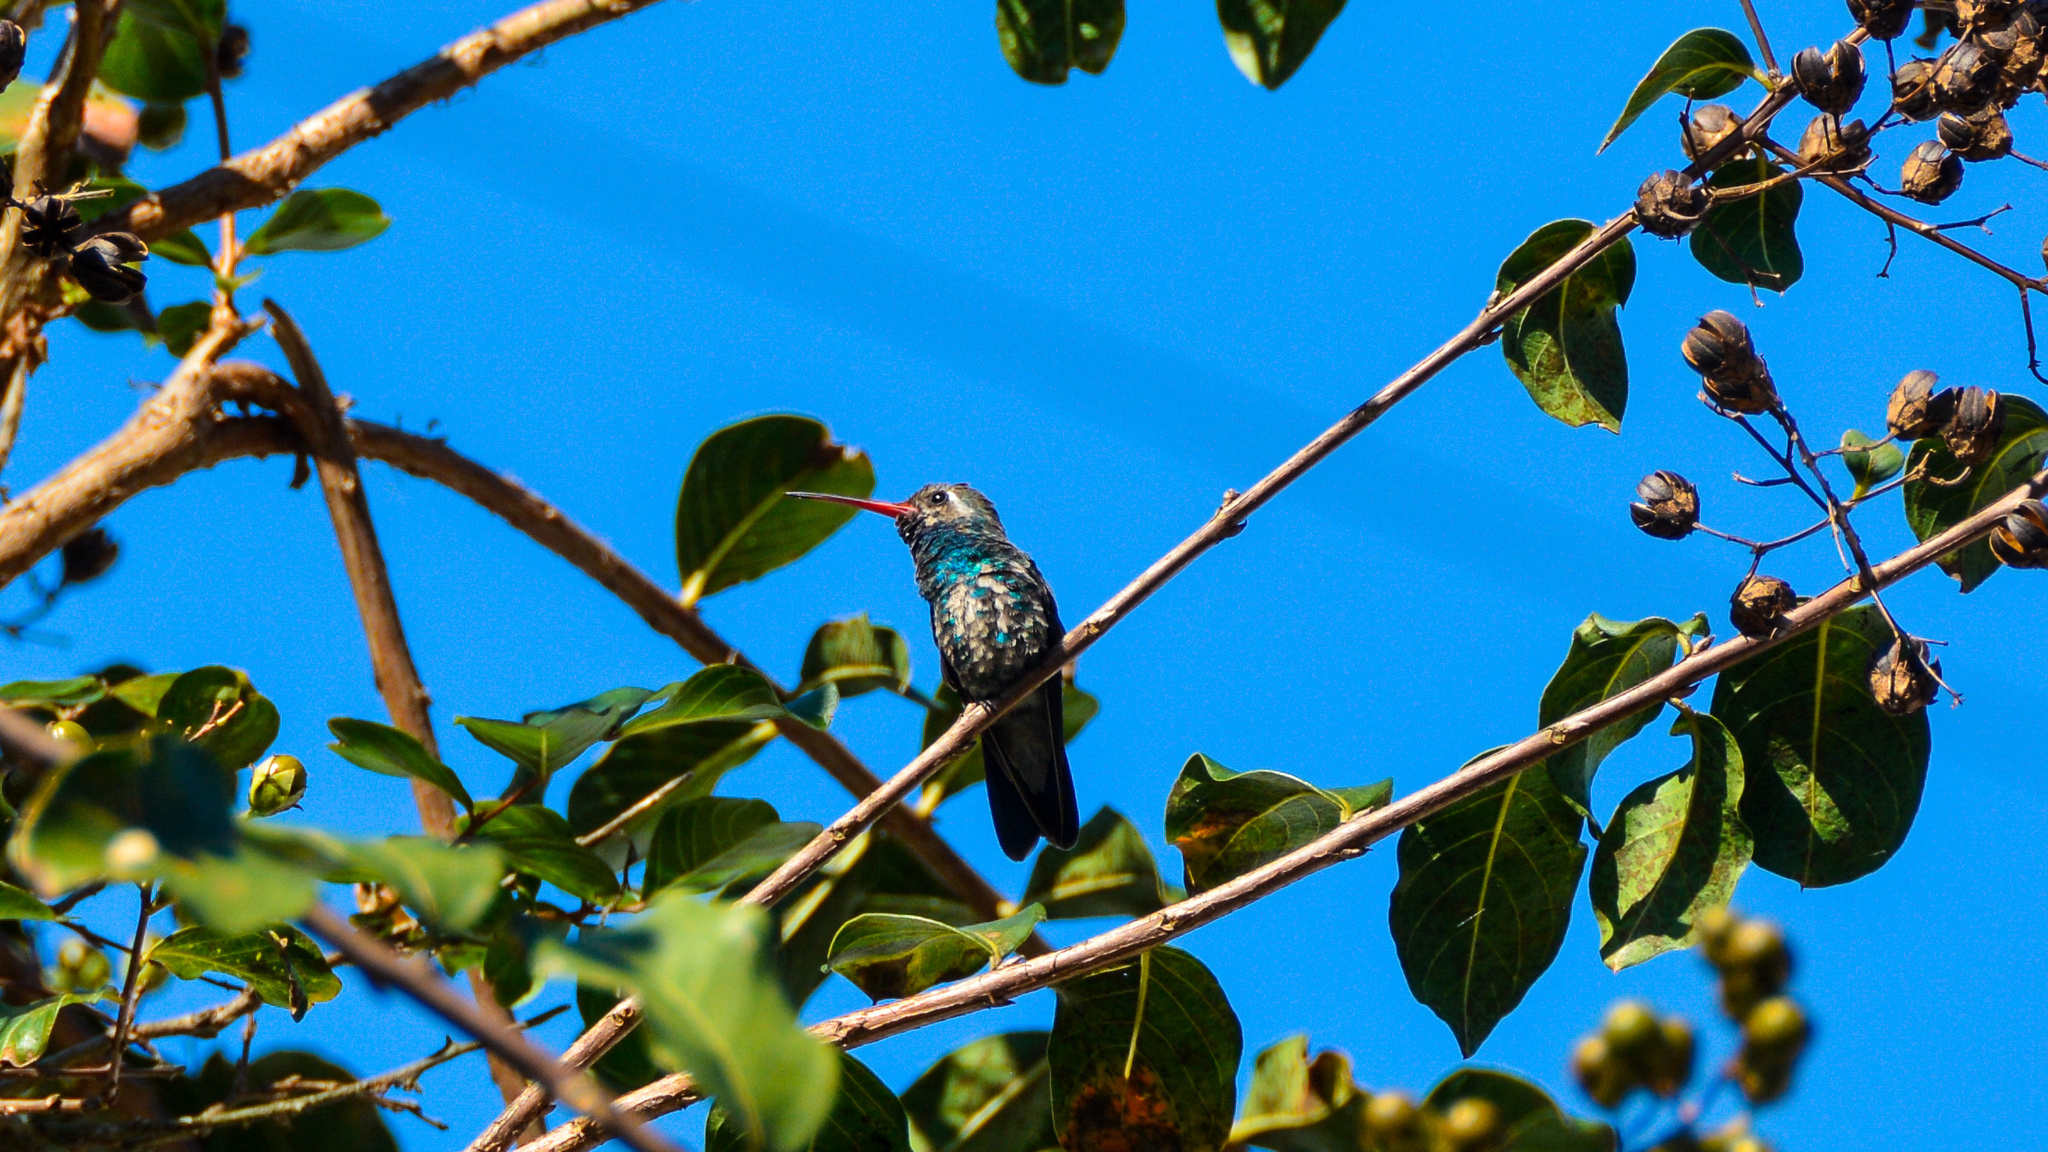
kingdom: Animalia
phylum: Chordata
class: Aves
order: Apodiformes
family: Trochilidae
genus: Cynanthus
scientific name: Cynanthus latirostris
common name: Broad-billed hummingbird
